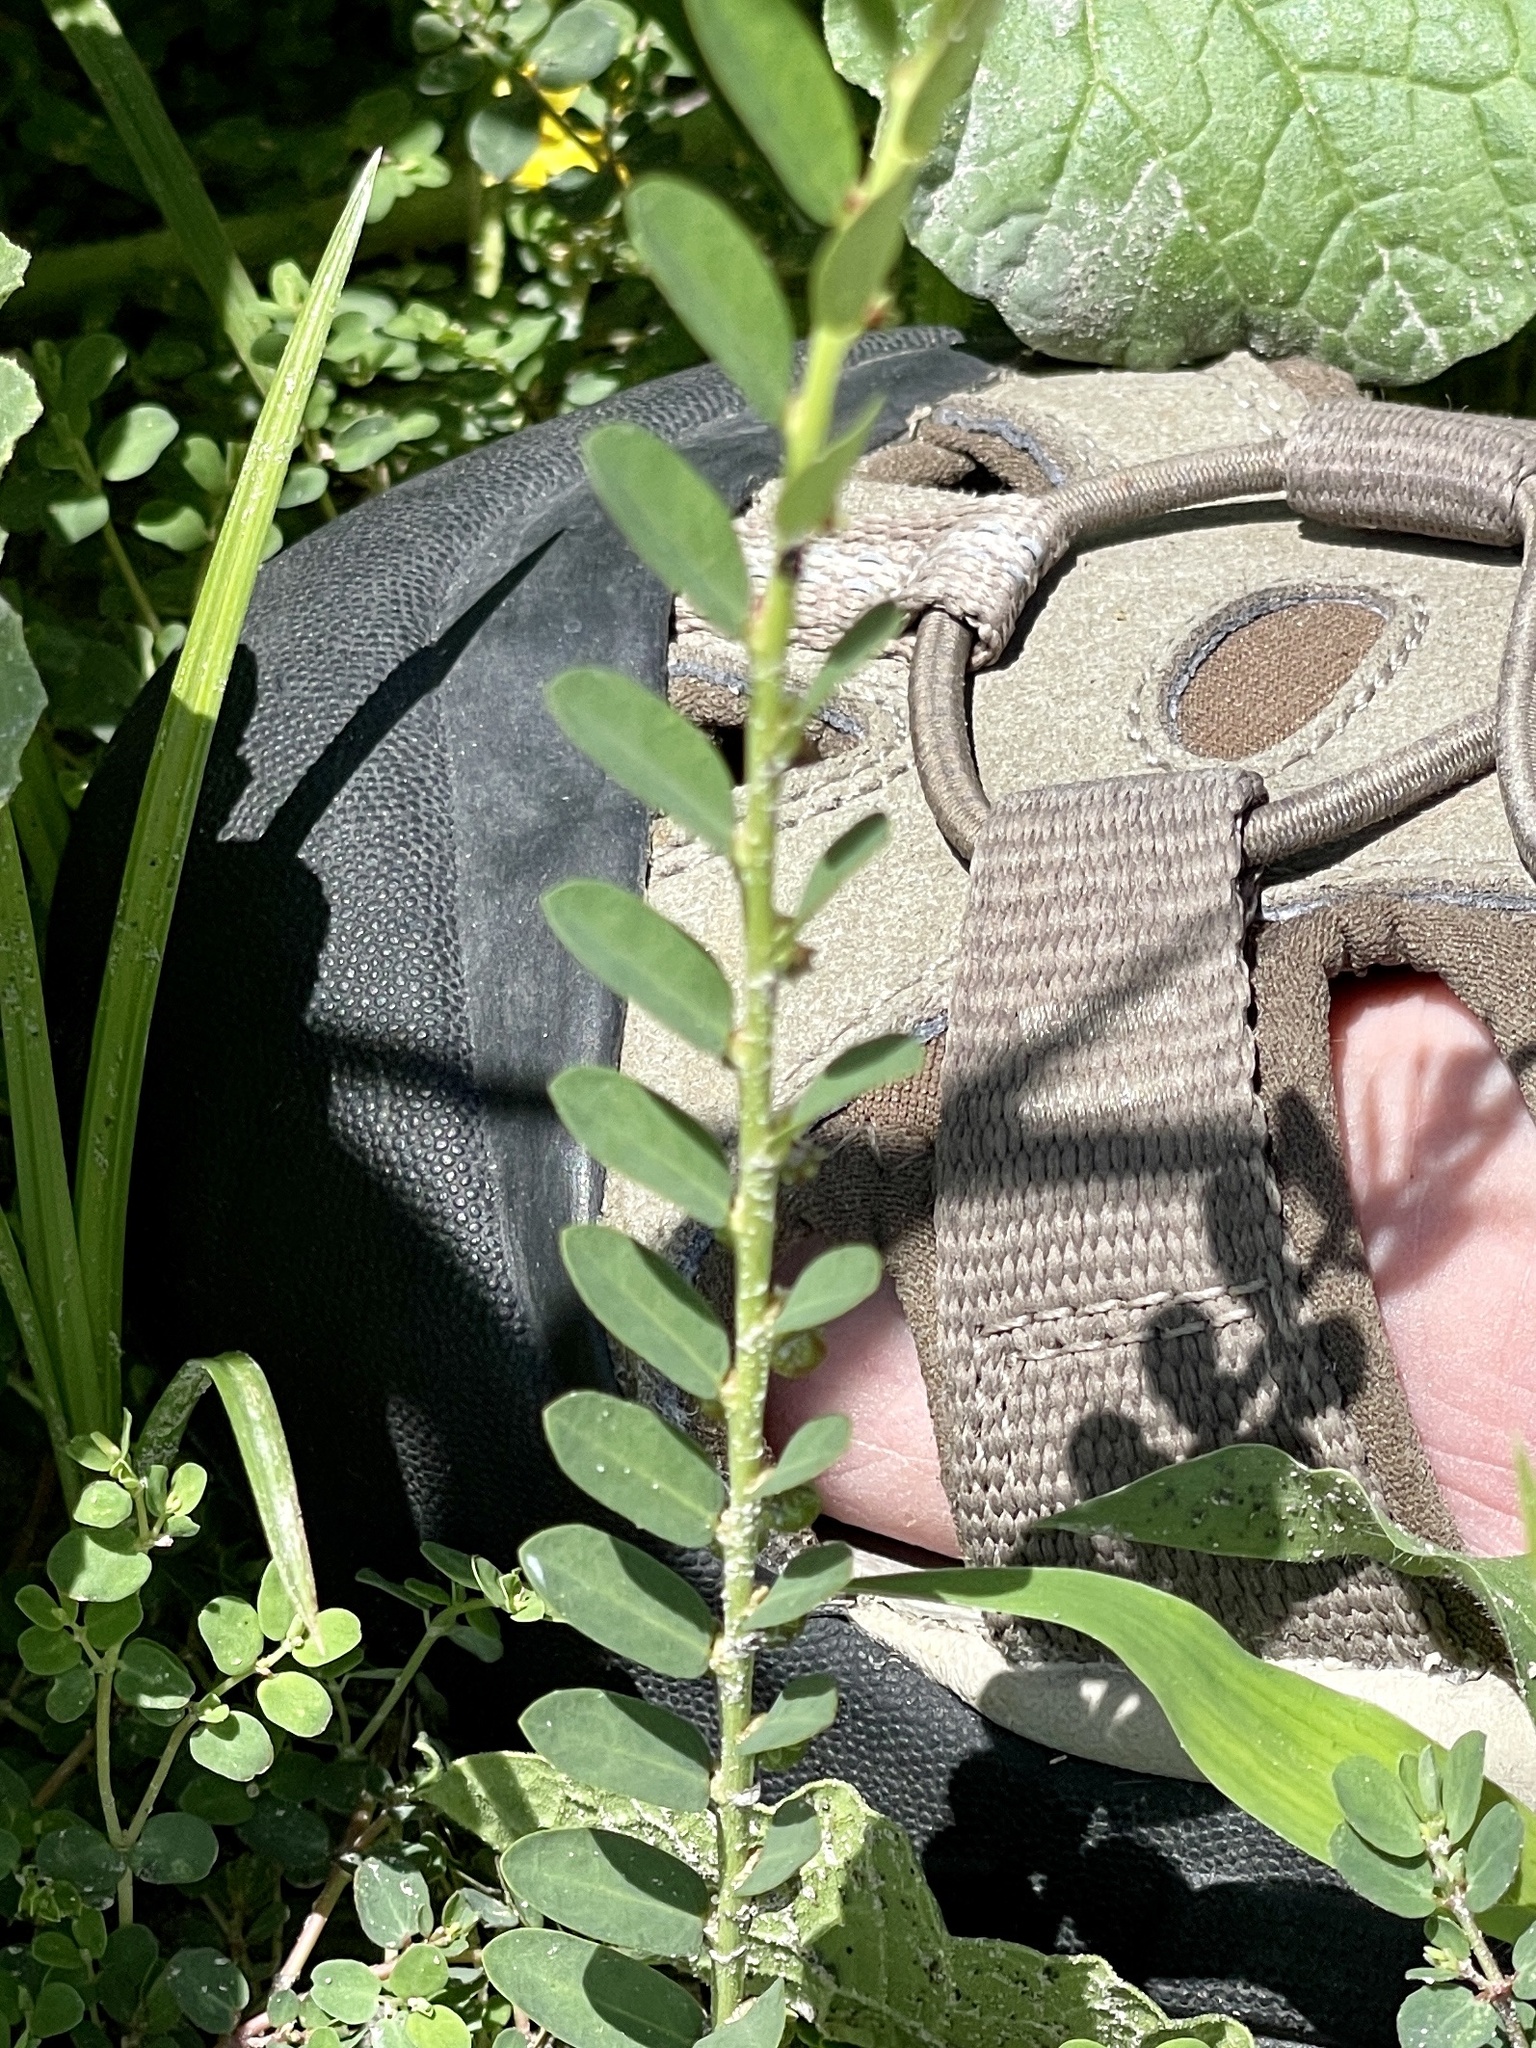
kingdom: Plantae
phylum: Tracheophyta
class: Magnoliopsida
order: Malpighiales
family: Phyllanthaceae
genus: Phyllanthus
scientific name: Phyllanthus evanescens
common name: Birdseed leaf-flower
